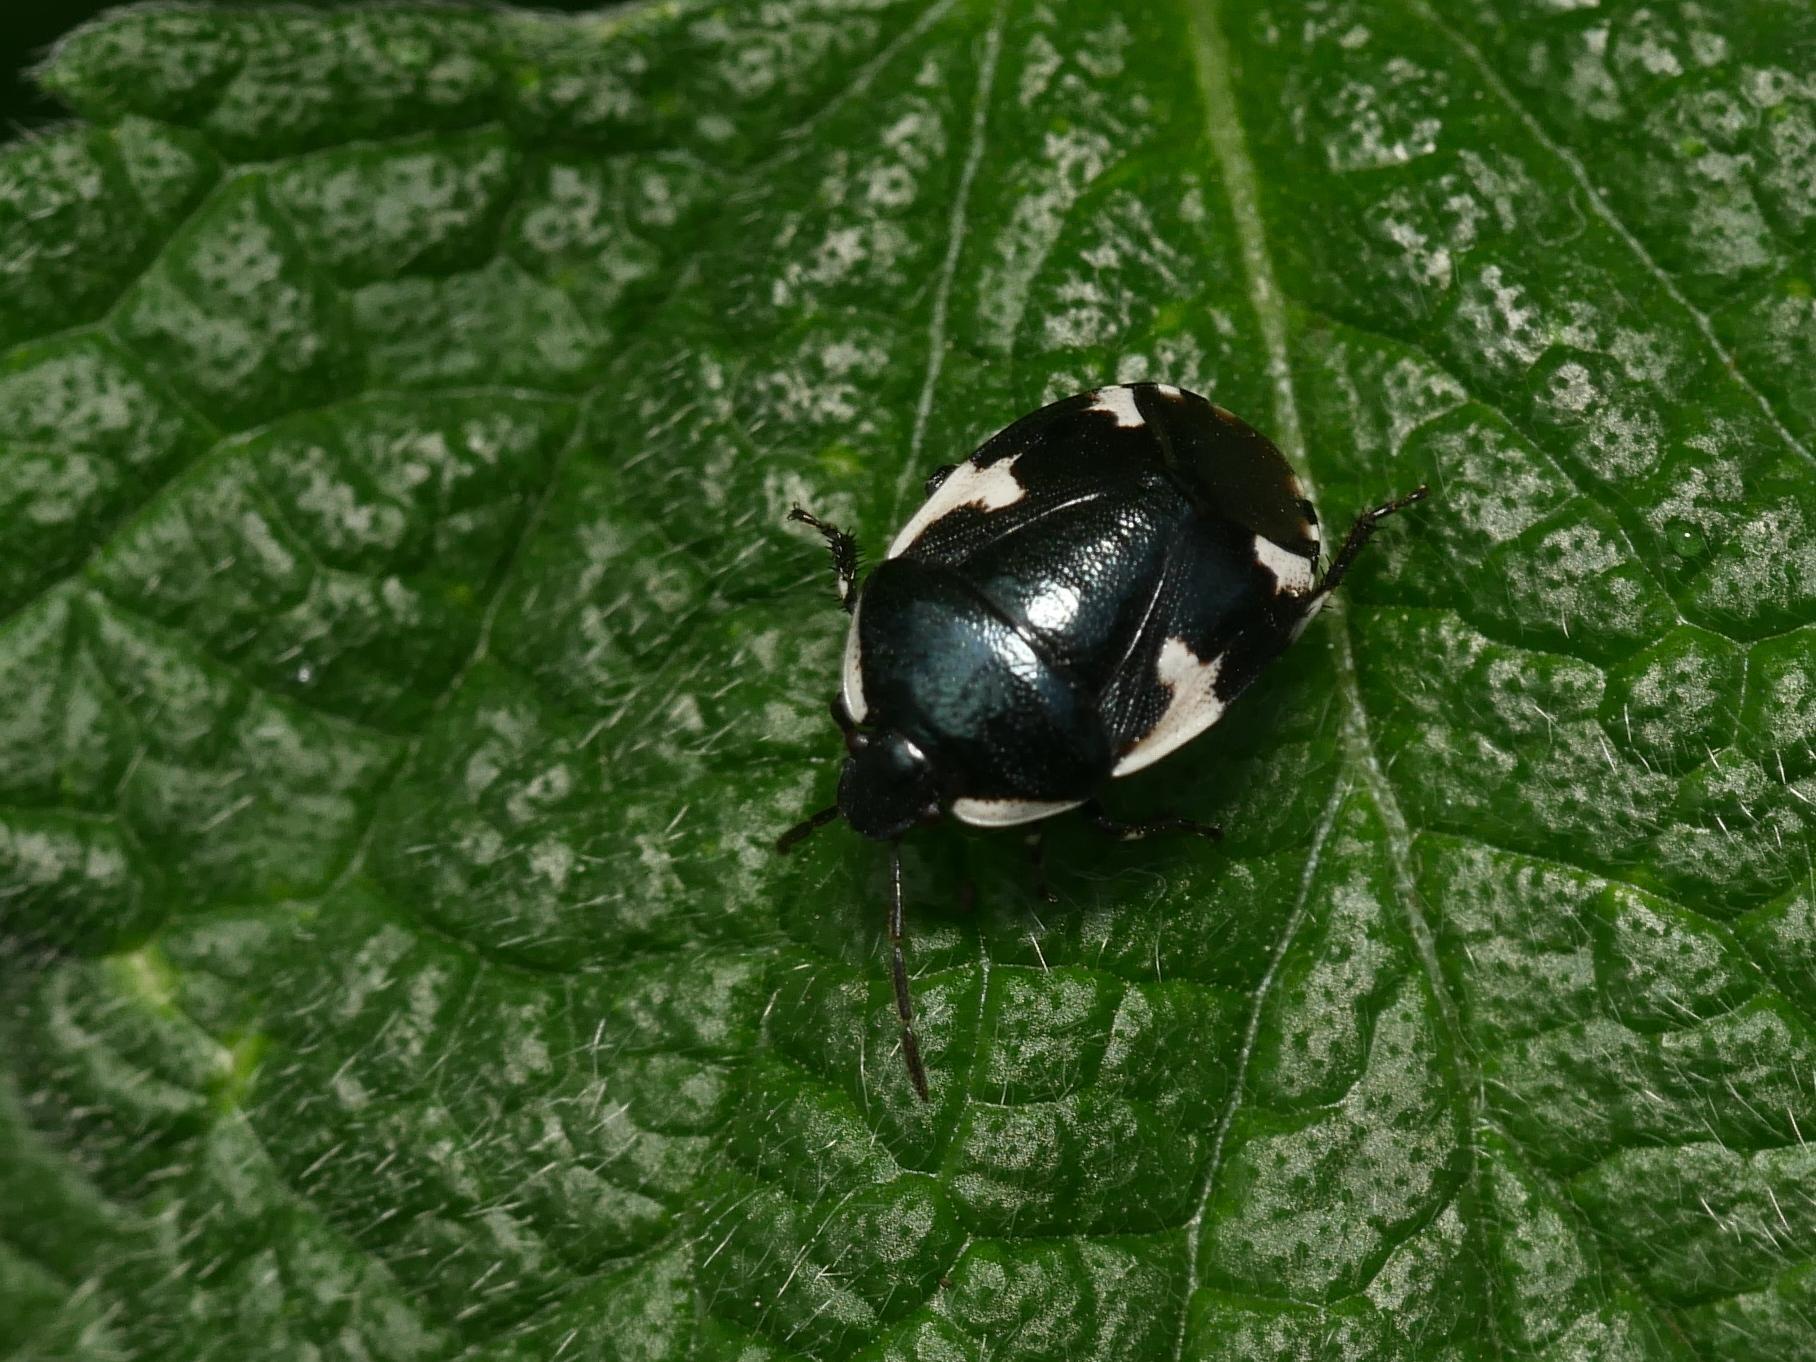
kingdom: Animalia
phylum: Arthropoda
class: Insecta
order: Hemiptera
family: Cydnidae
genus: Tritomegas
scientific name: Tritomegas sexmaculatus
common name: Rambur's pied shieldbug
